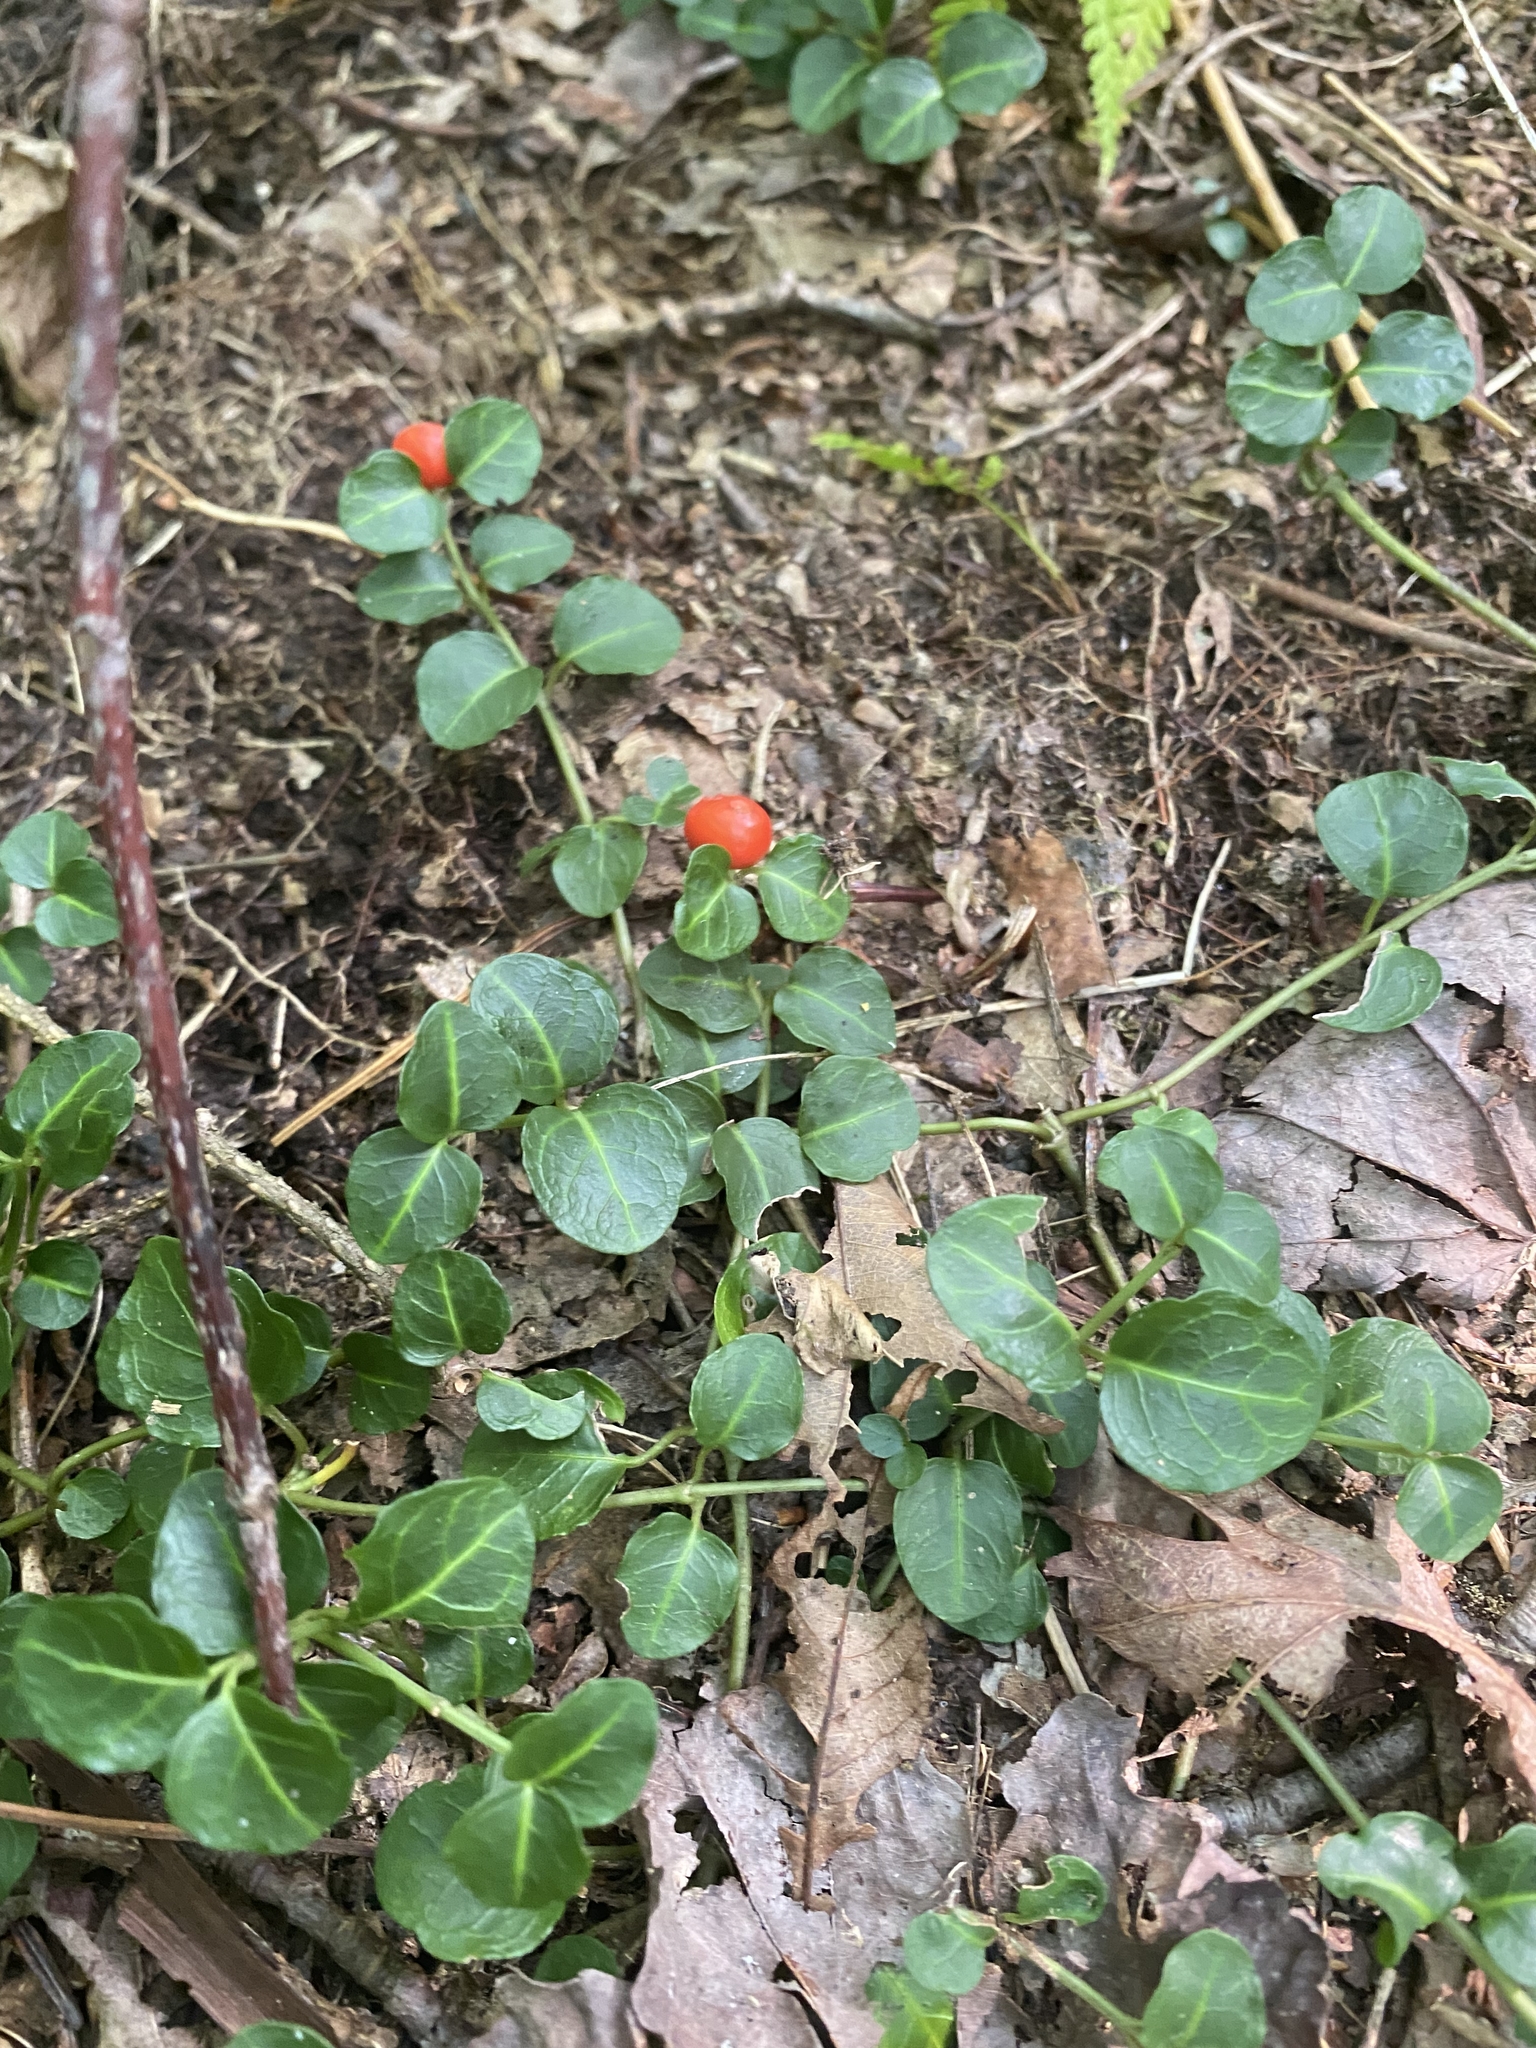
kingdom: Plantae
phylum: Tracheophyta
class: Magnoliopsida
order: Gentianales
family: Rubiaceae
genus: Mitchella
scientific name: Mitchella repens
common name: Partridge-berry
